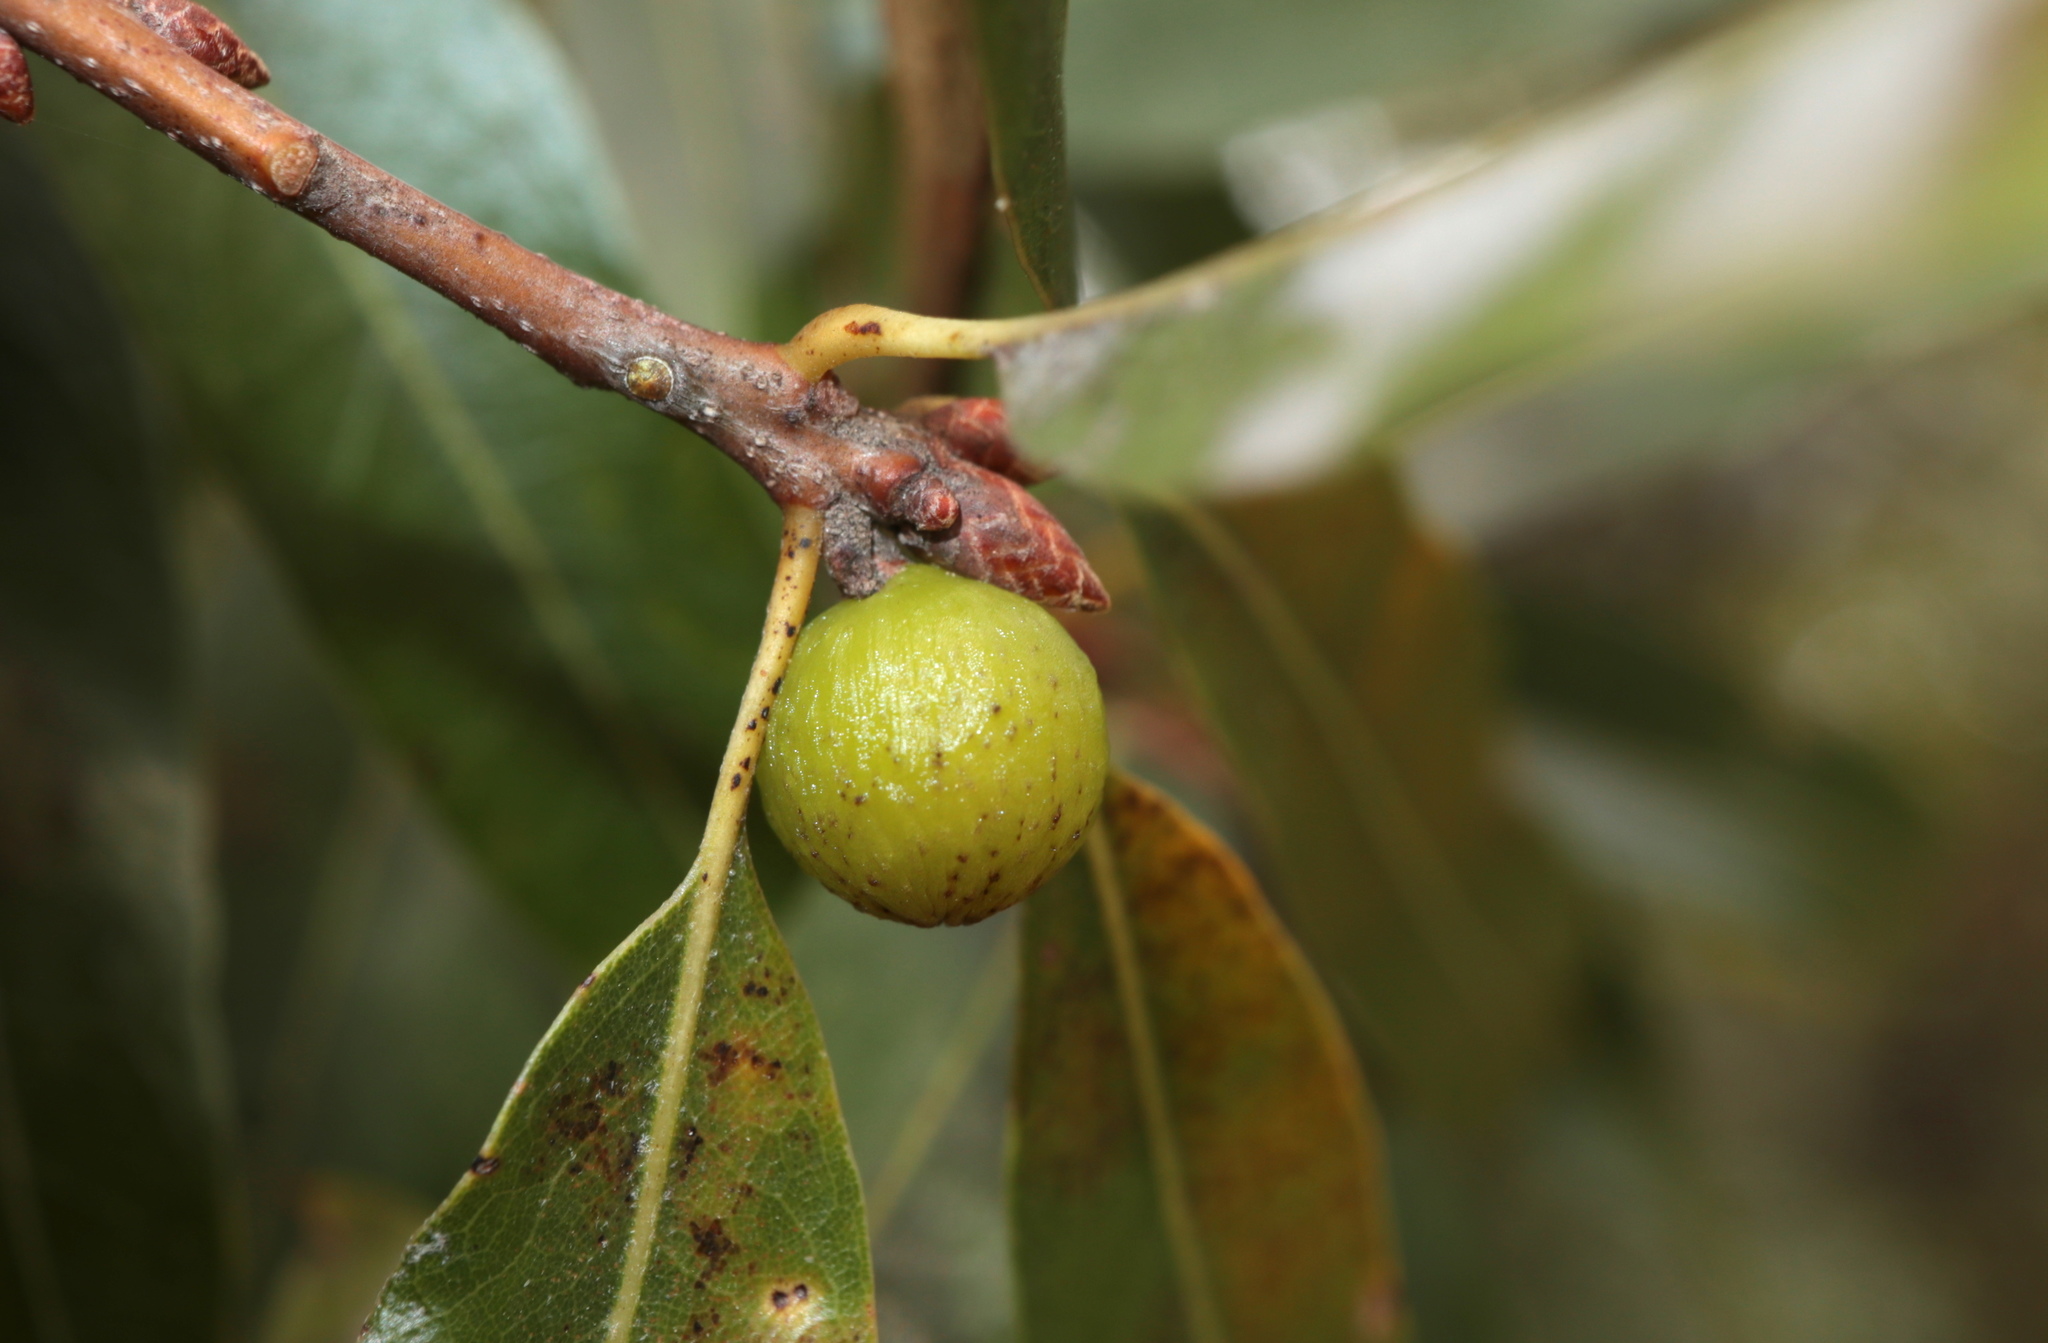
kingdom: Animalia
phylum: Arthropoda
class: Insecta
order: Hymenoptera
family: Cynipidae
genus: Callirhytis
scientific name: Callirhytis
